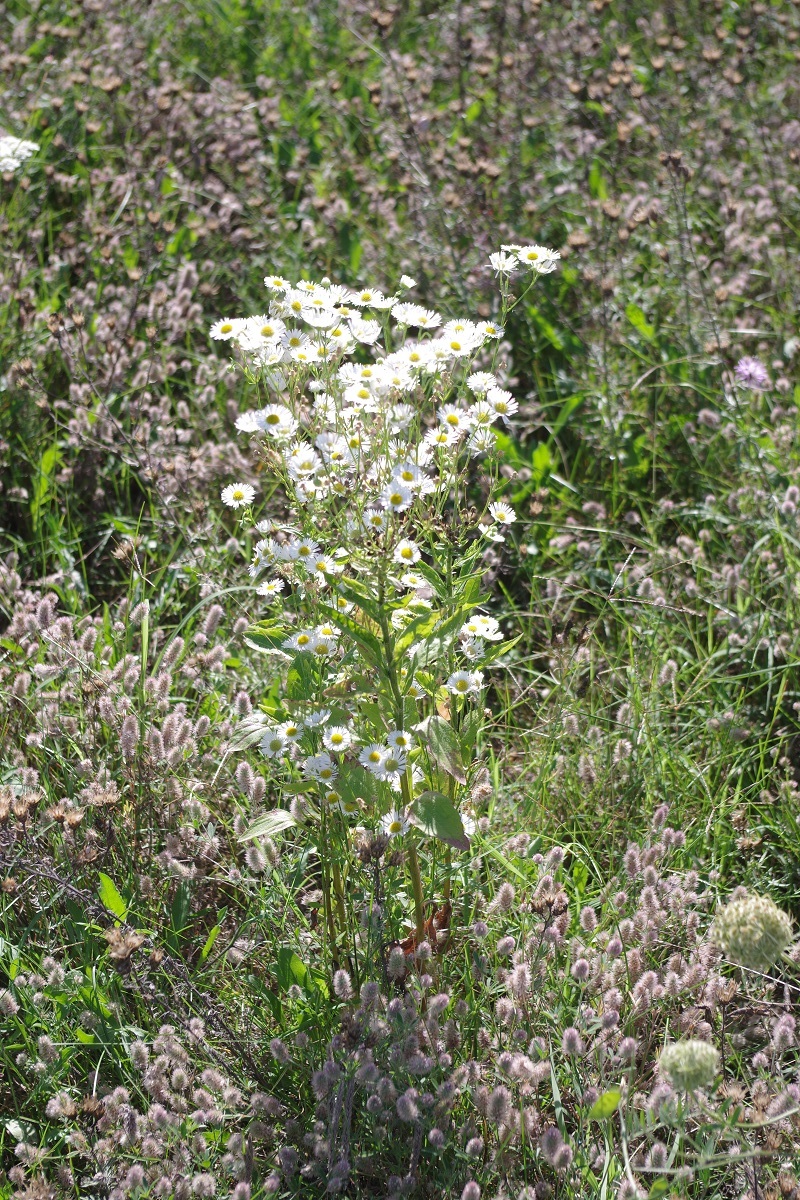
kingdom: Plantae
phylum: Tracheophyta
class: Magnoliopsida
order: Asterales
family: Asteraceae
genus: Erigeron
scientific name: Erigeron annuus
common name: Tall fleabane
